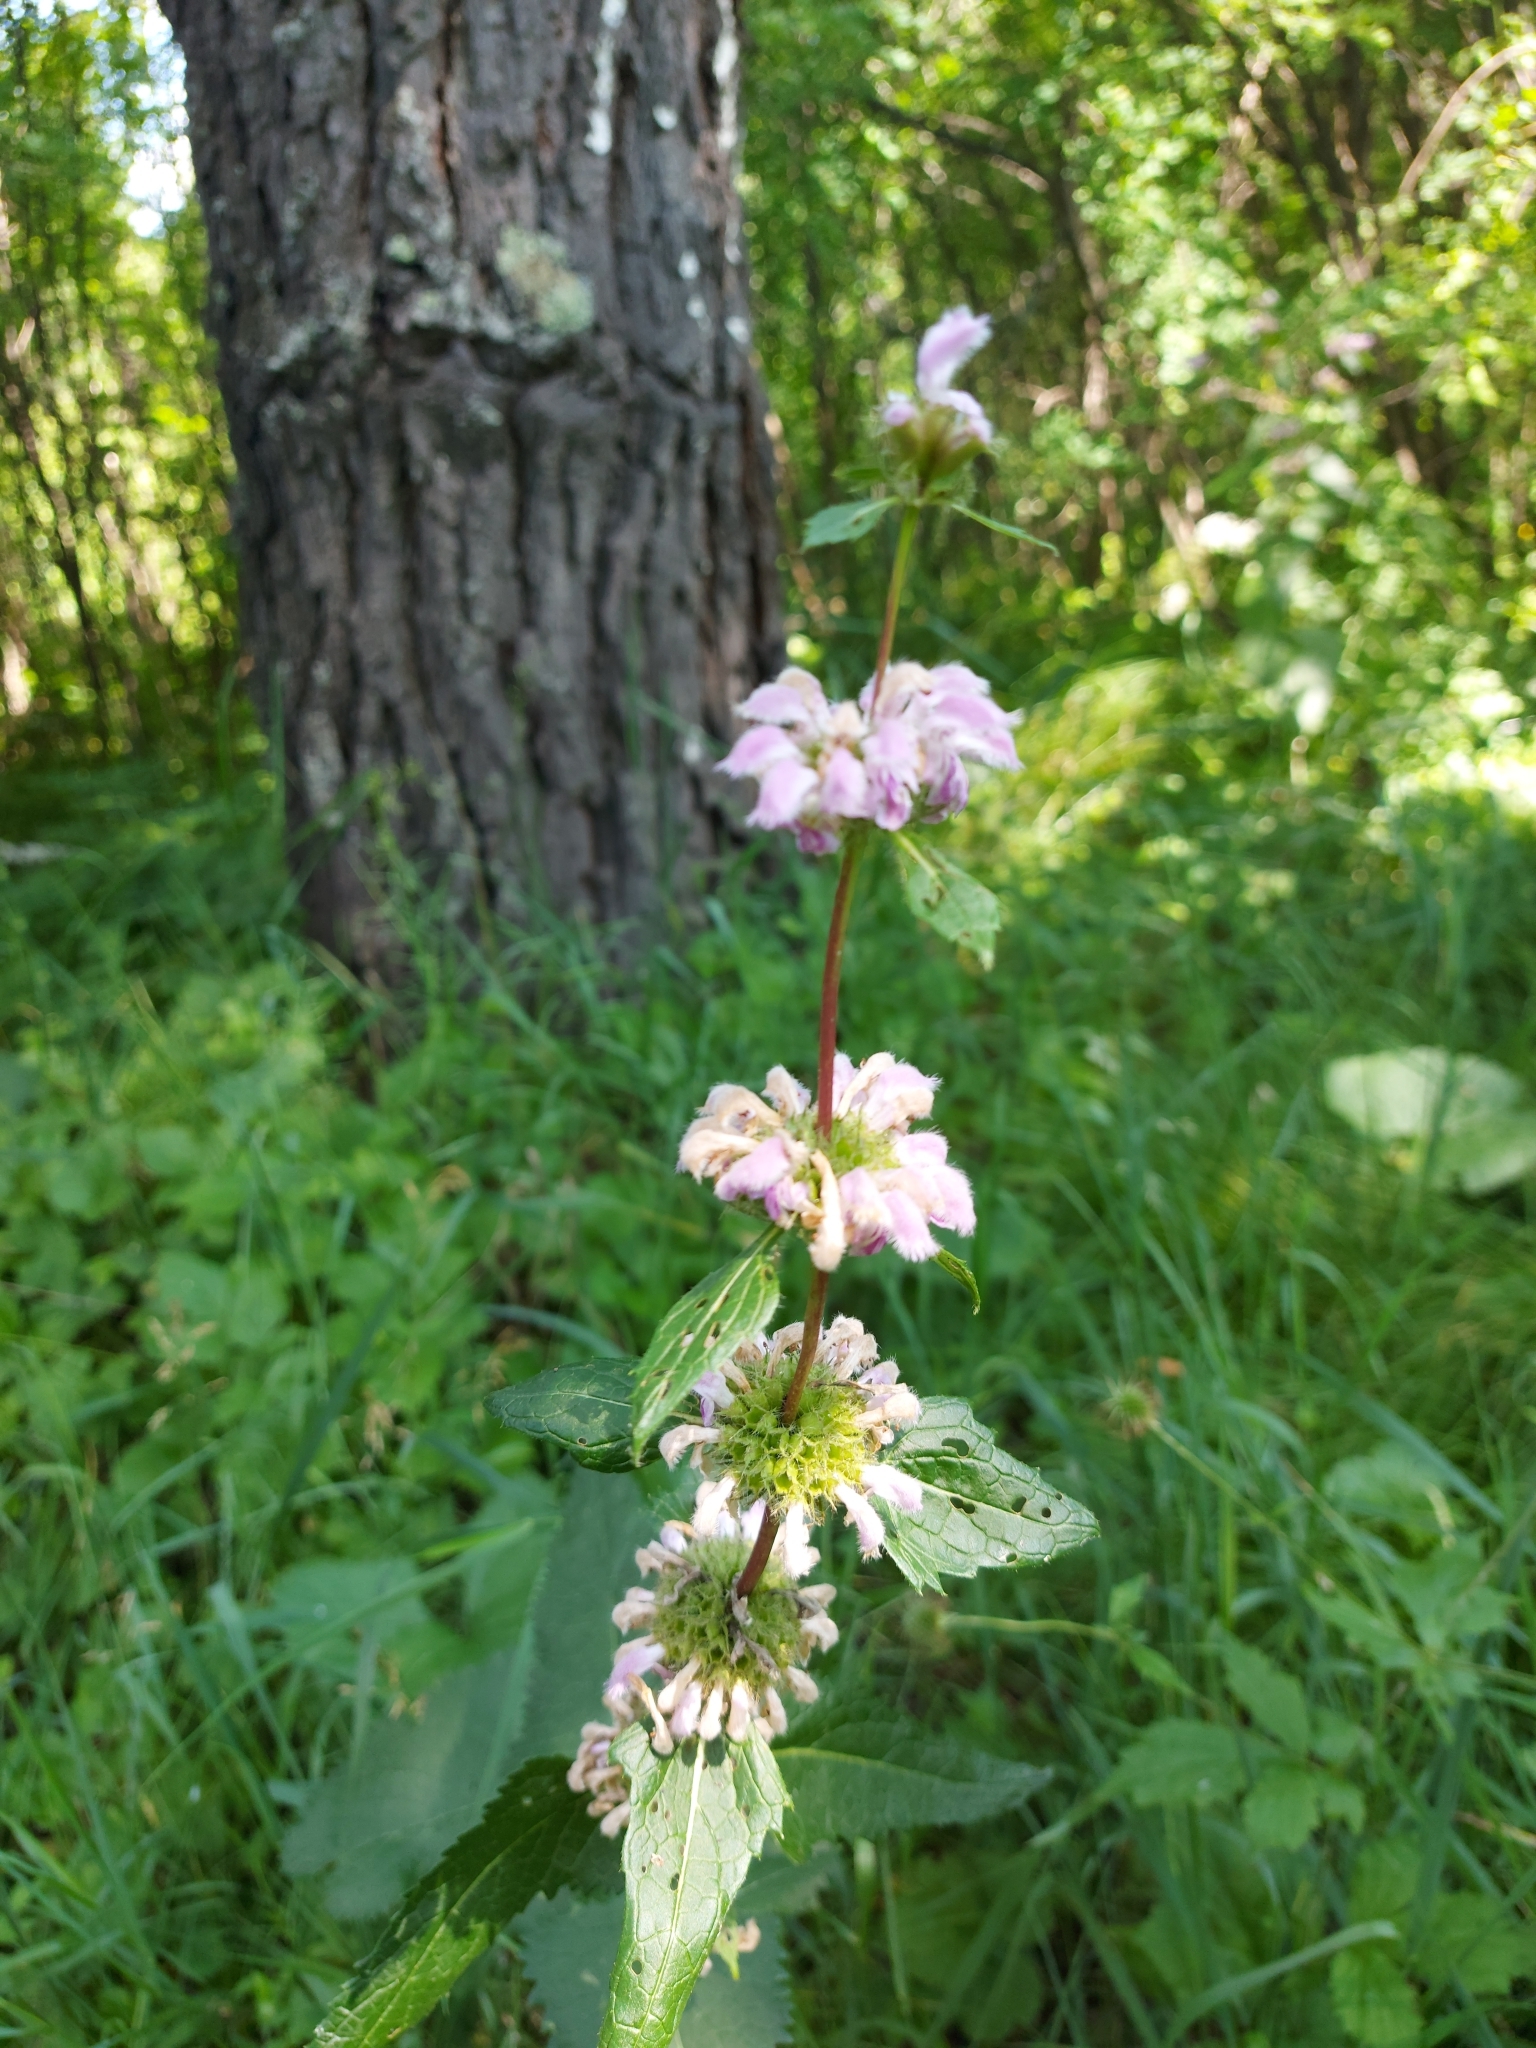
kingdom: Plantae
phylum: Tracheophyta
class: Magnoliopsida
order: Lamiales
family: Lamiaceae
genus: Phlomoides
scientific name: Phlomoides tuberosa
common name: Tuberous jerusalem sage
